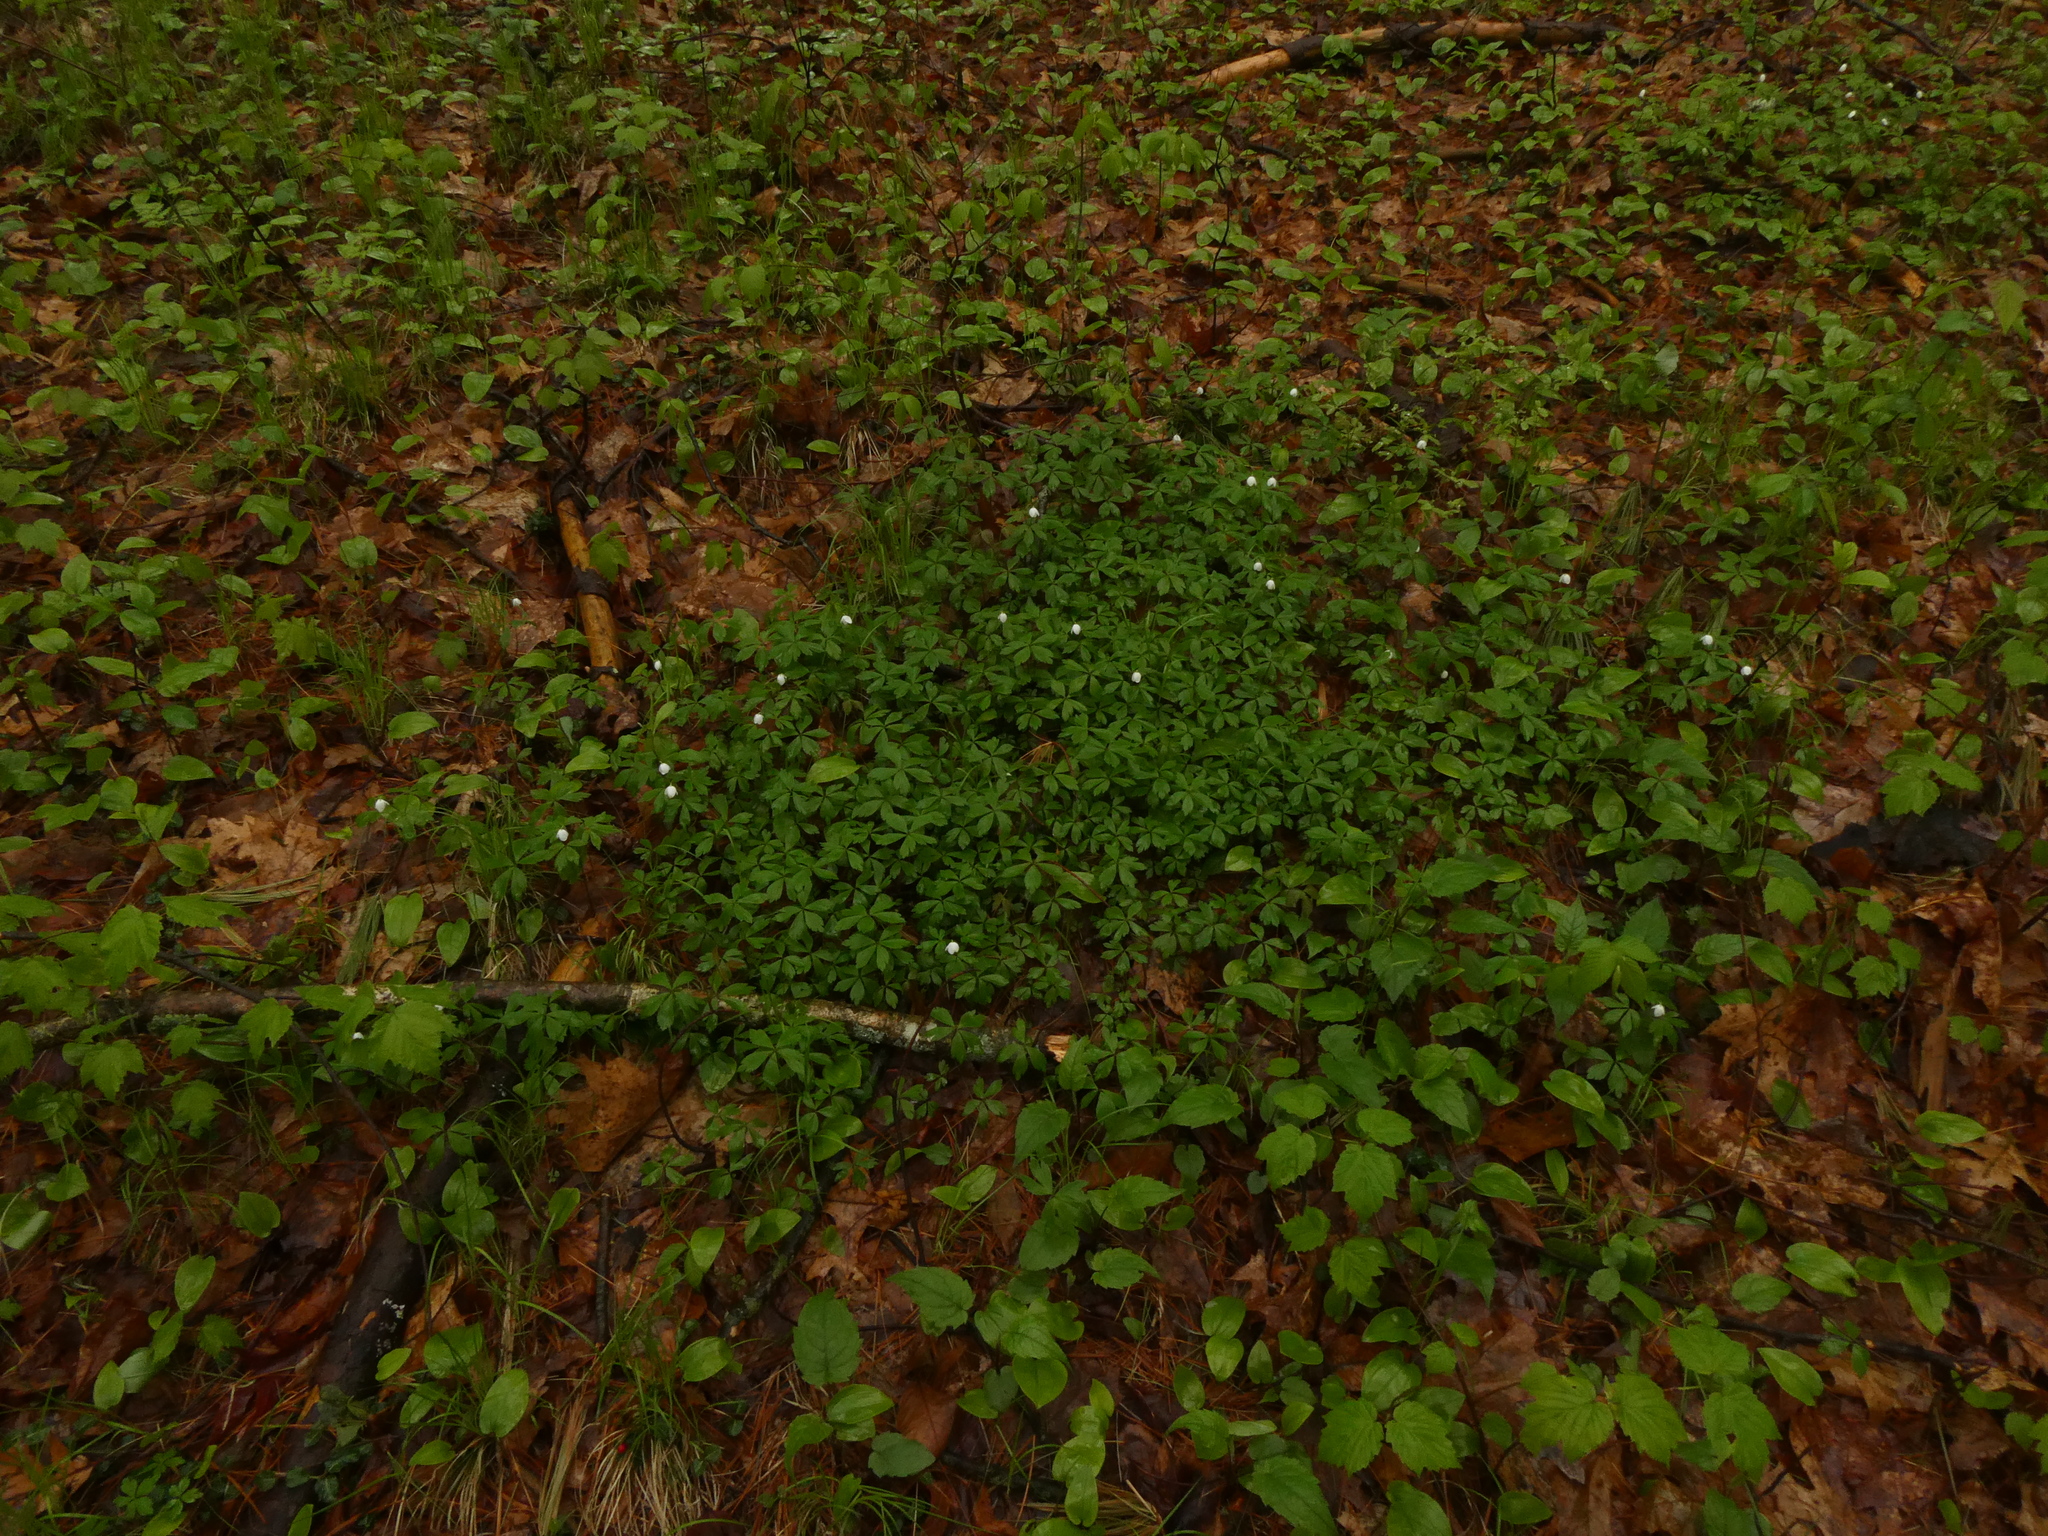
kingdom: Plantae
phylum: Tracheophyta
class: Magnoliopsida
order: Ranunculales
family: Ranunculaceae
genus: Anemone
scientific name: Anemone quinquefolia
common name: Wood anemone
